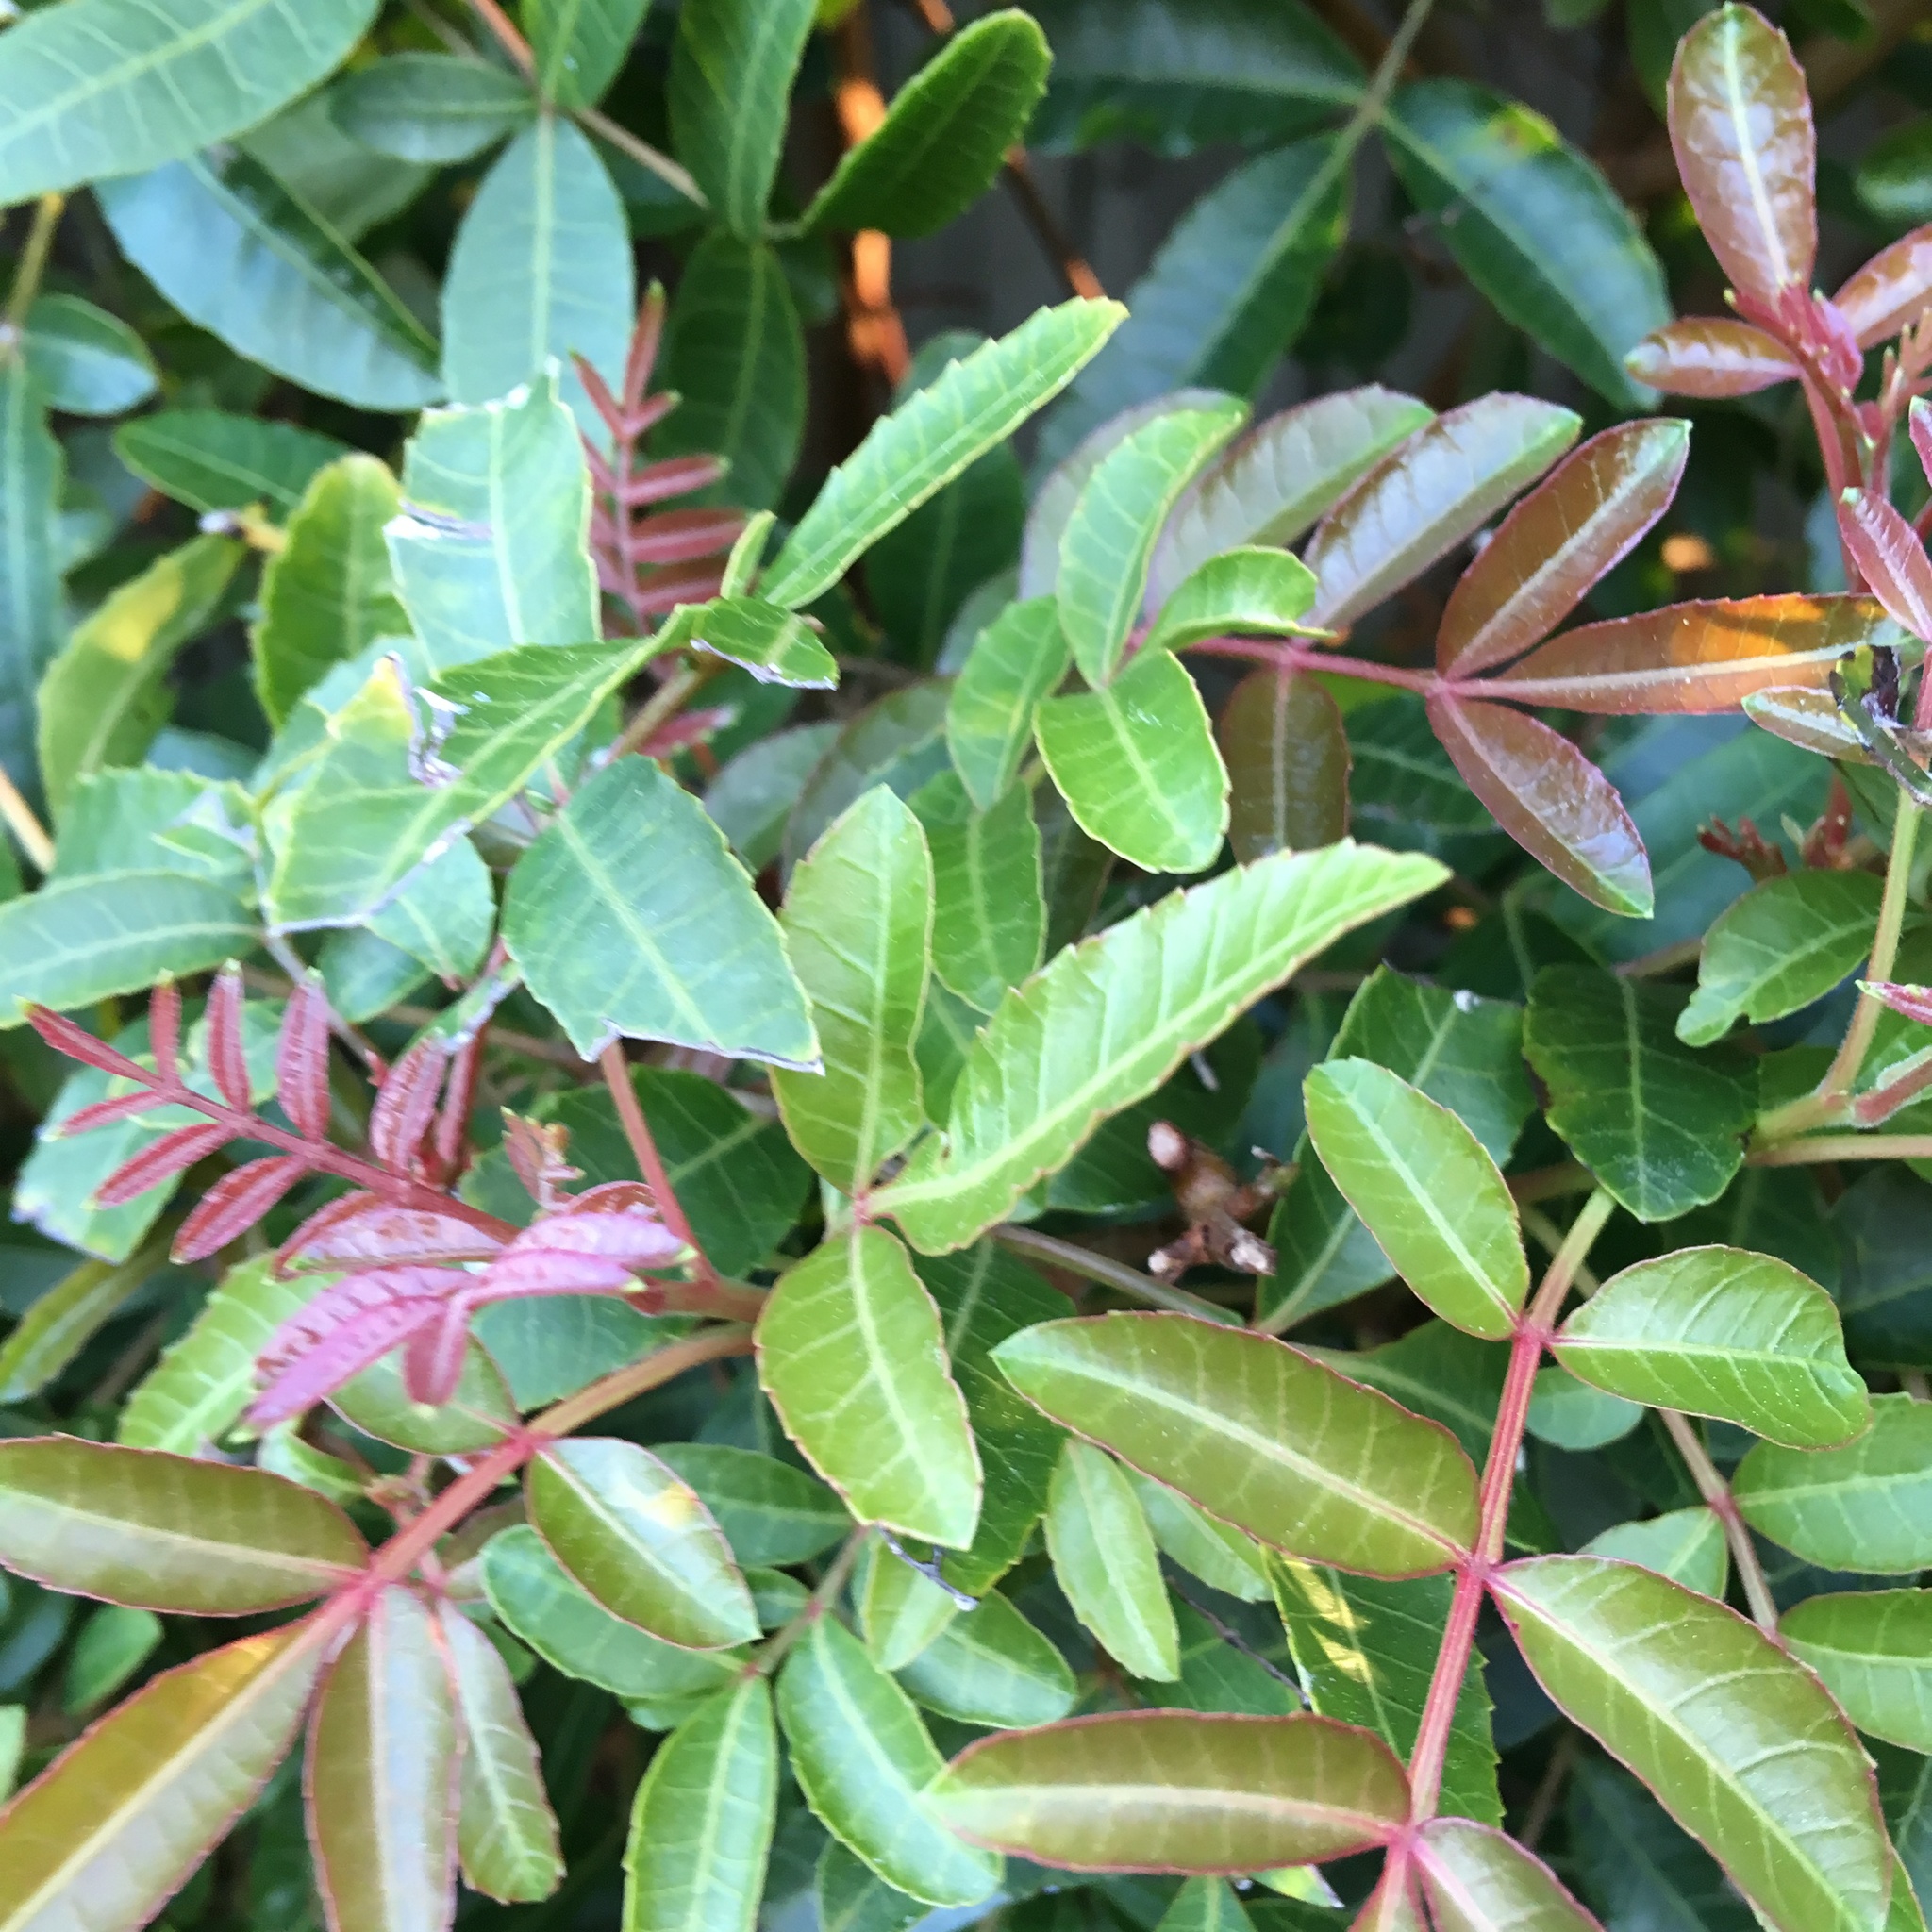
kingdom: Plantae
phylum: Tracheophyta
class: Magnoliopsida
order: Sapindales
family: Anacardiaceae
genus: Schinus
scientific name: Schinus terebinthifolia
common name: Brazilian peppertree
